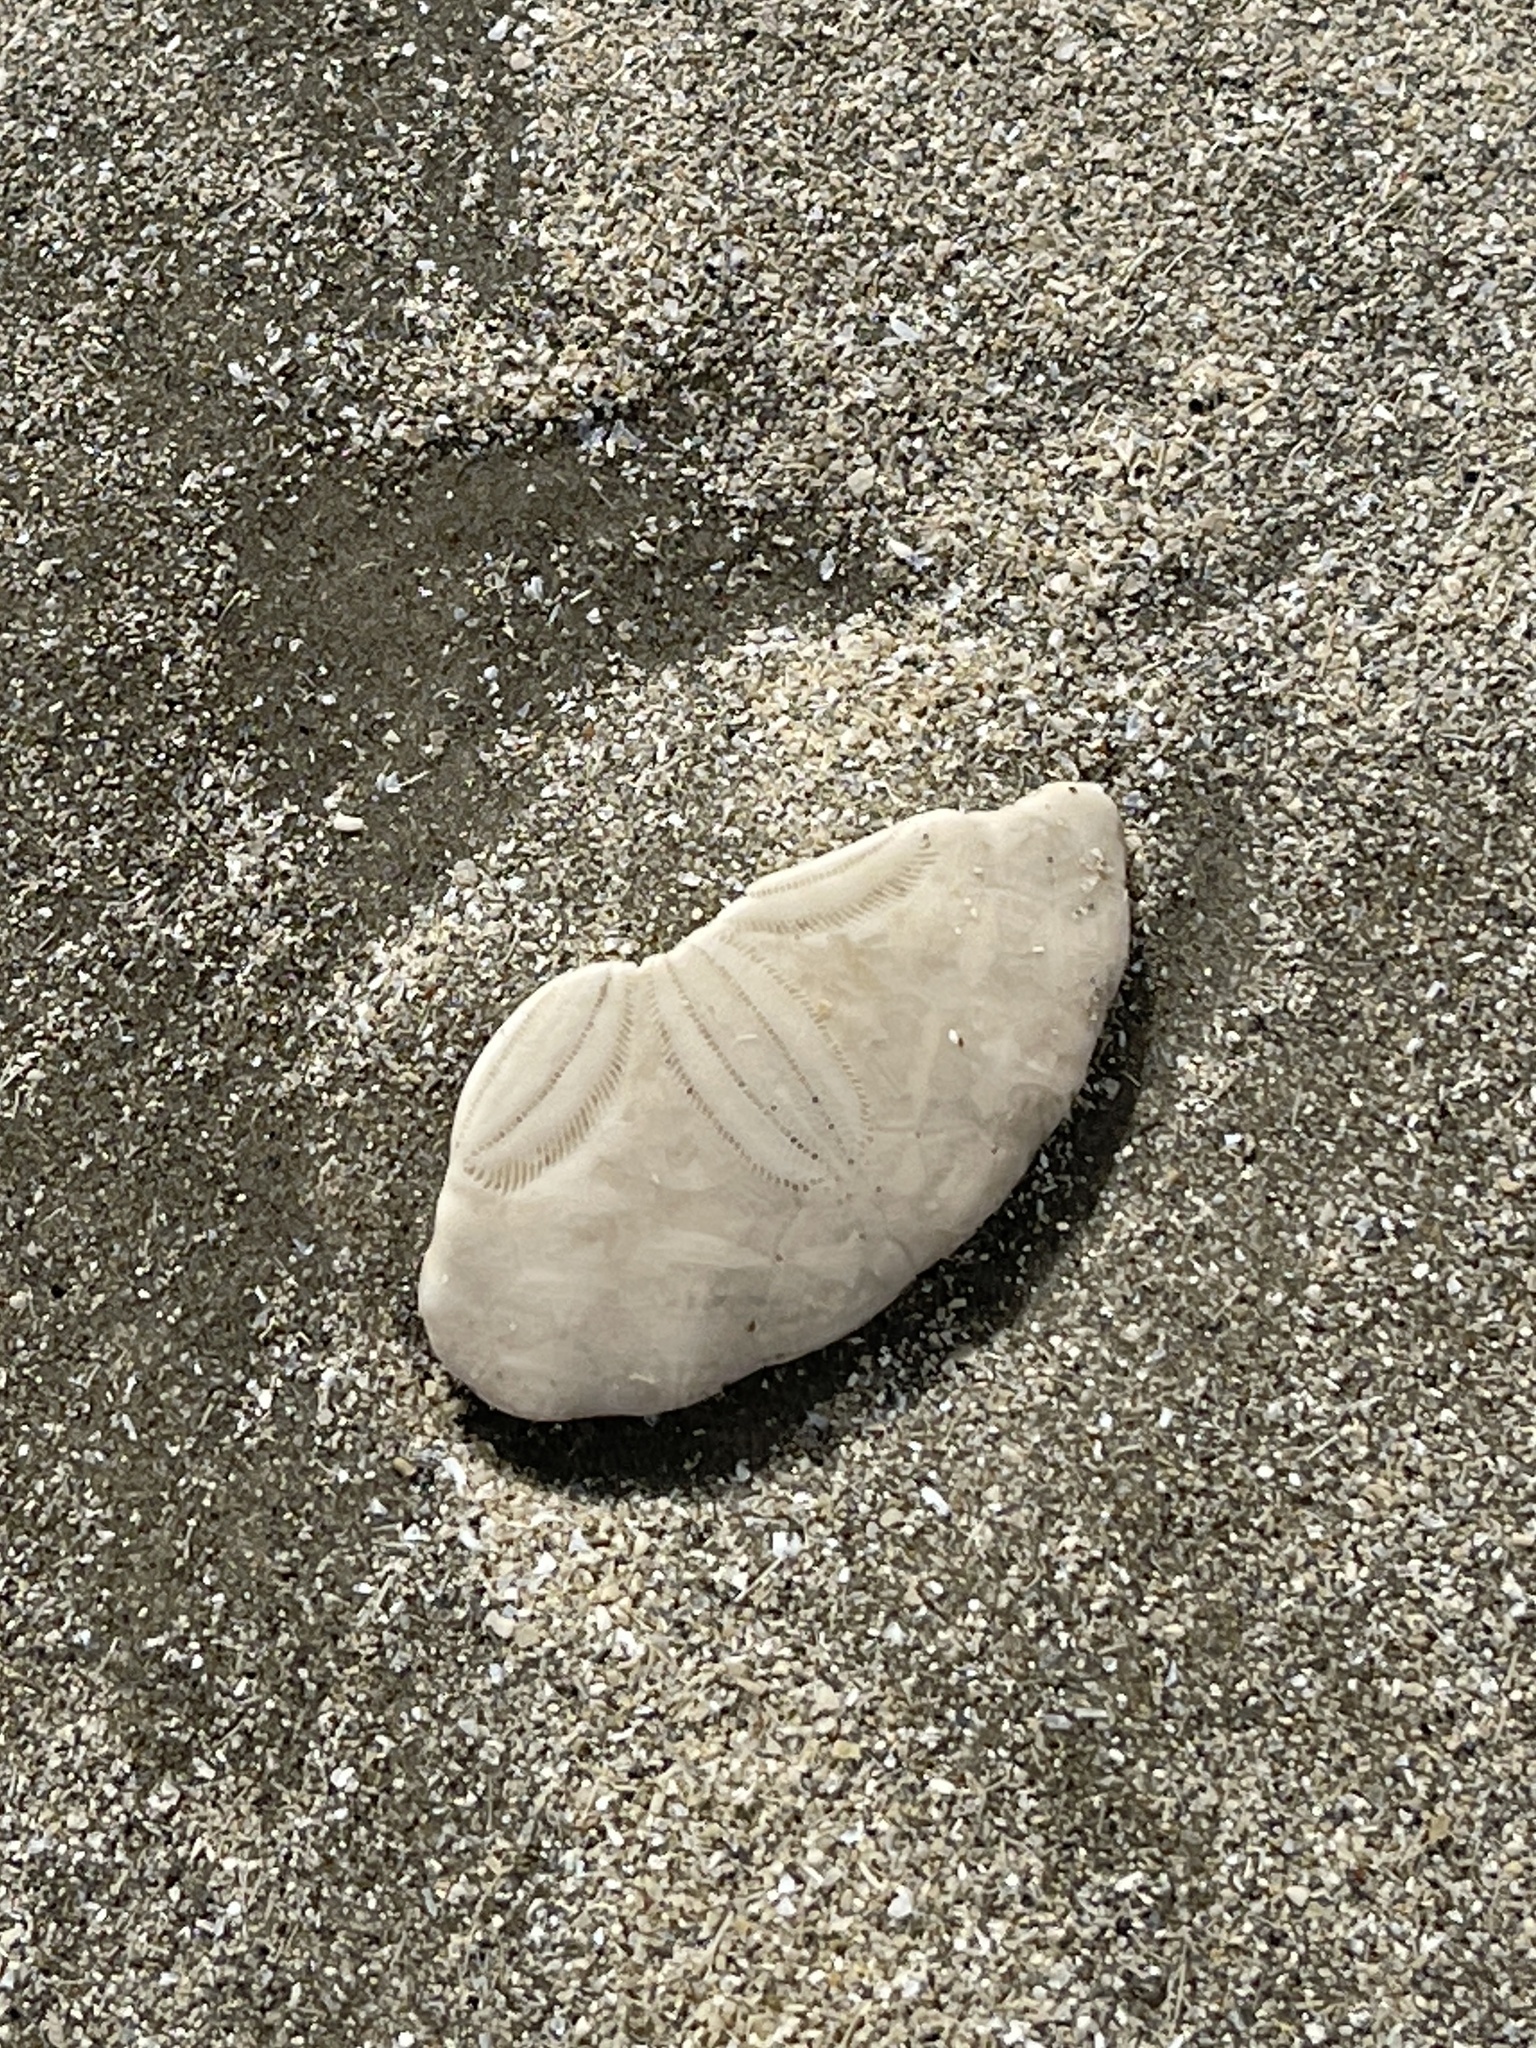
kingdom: Animalia
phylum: Echinodermata
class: Echinoidea
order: Echinolampadacea
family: Mellitidae
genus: Mellita
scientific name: Mellita quinquiesperforata
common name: Sand dollar
